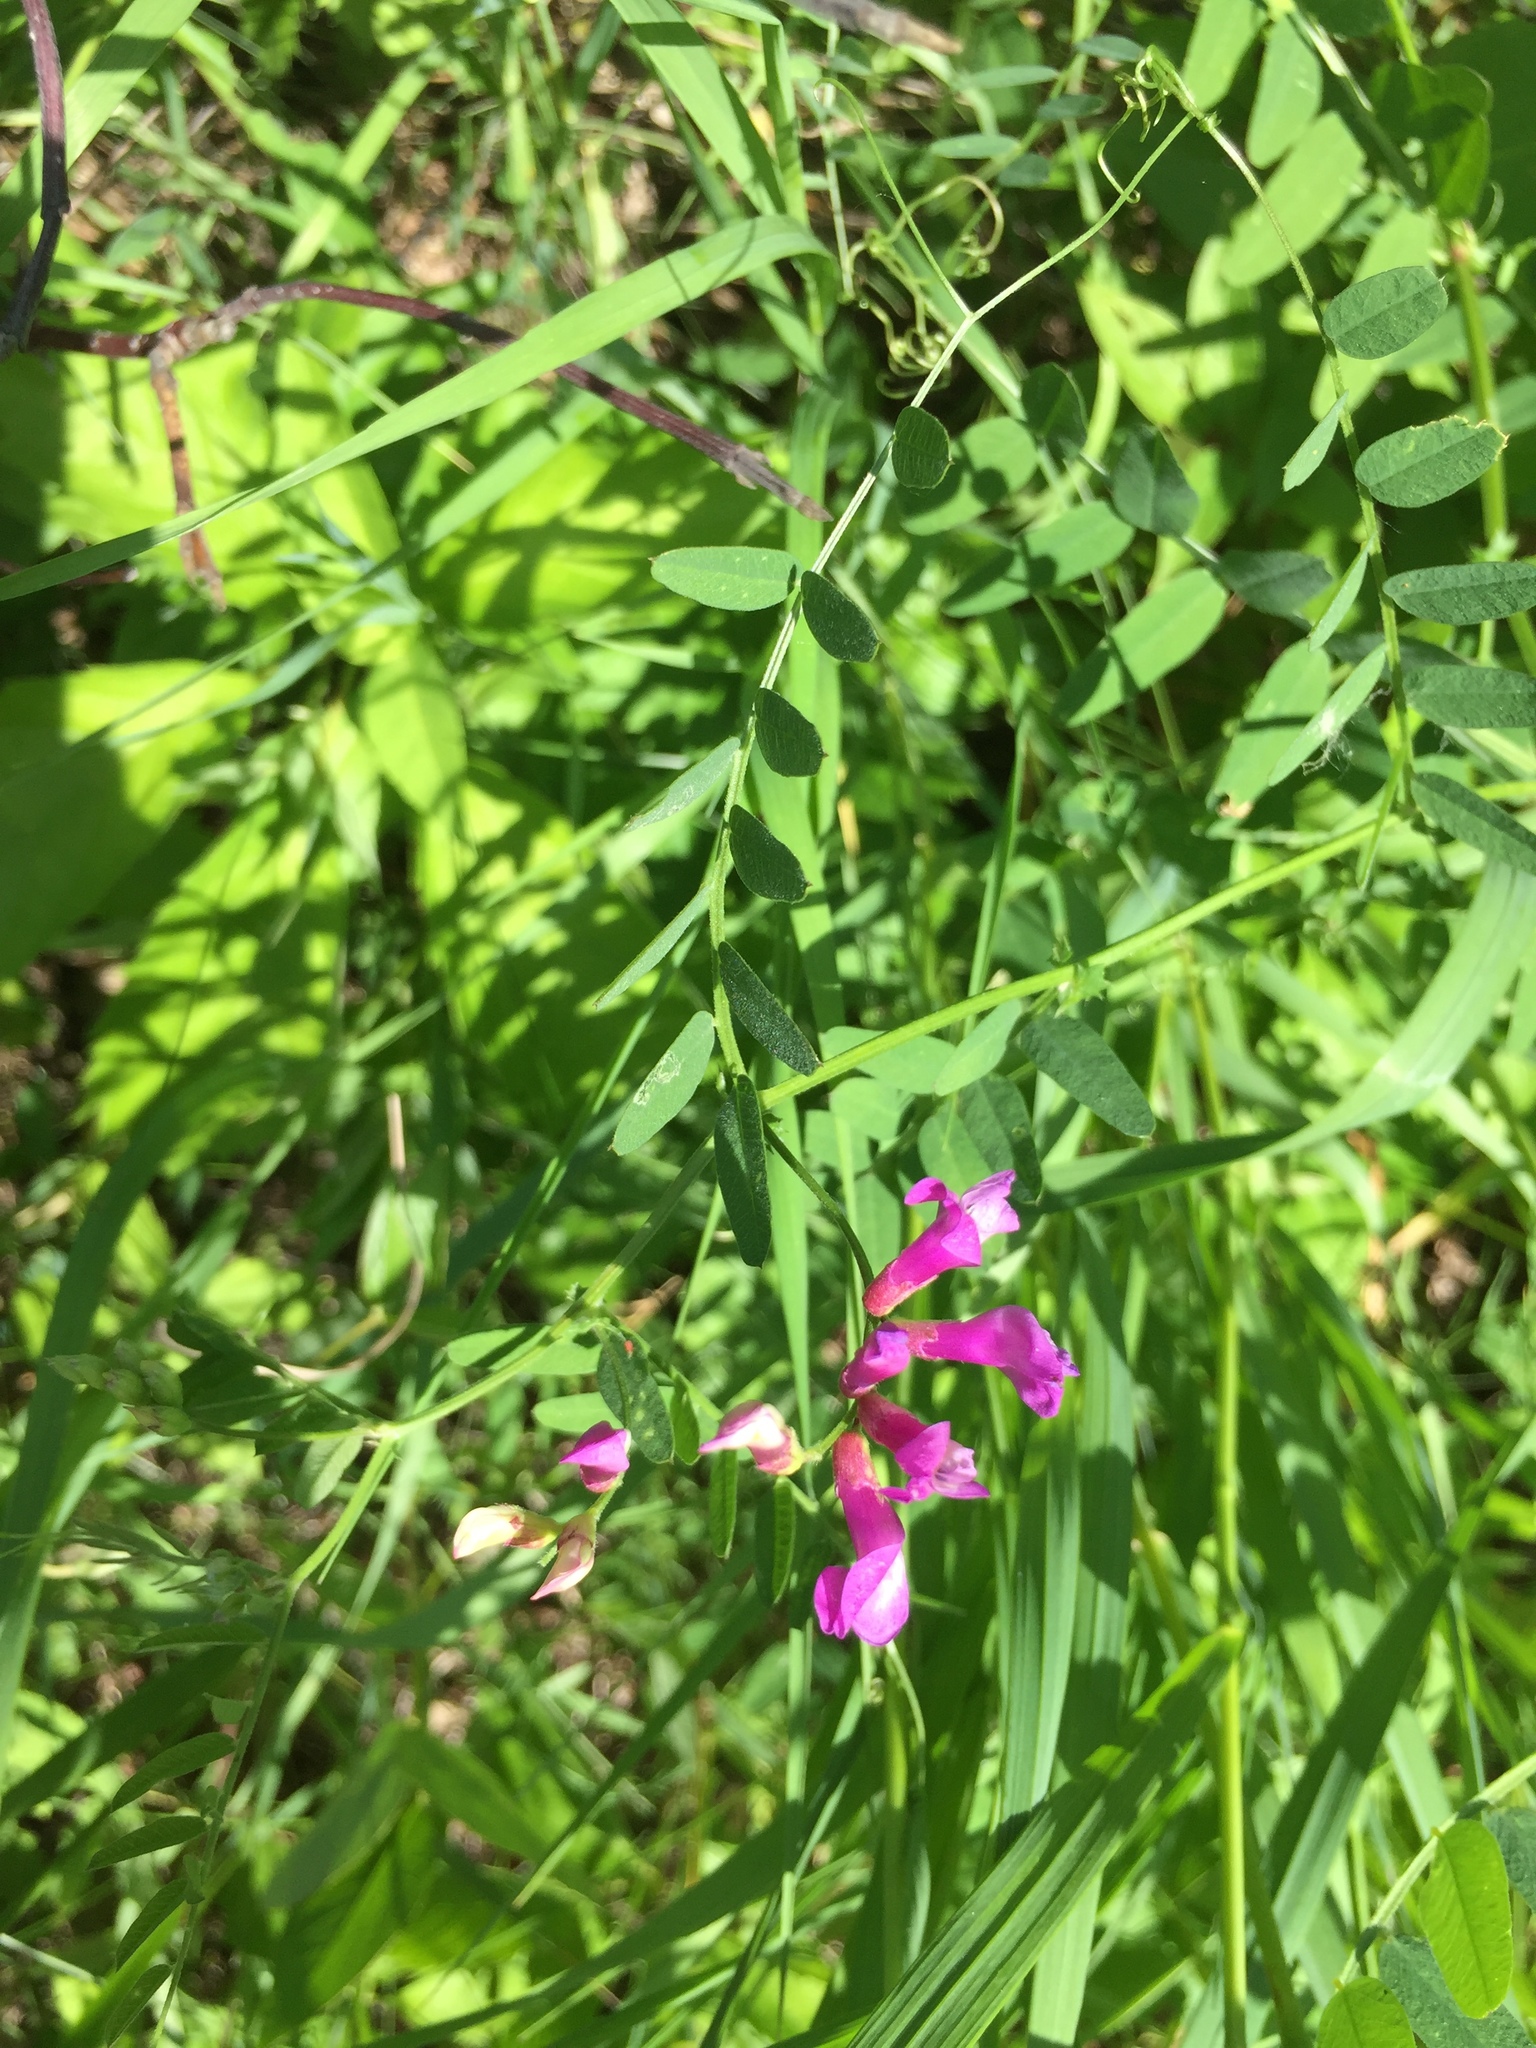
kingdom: Plantae
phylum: Tracheophyta
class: Magnoliopsida
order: Fabales
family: Fabaceae
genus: Vicia
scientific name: Vicia americana
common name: American vetch
